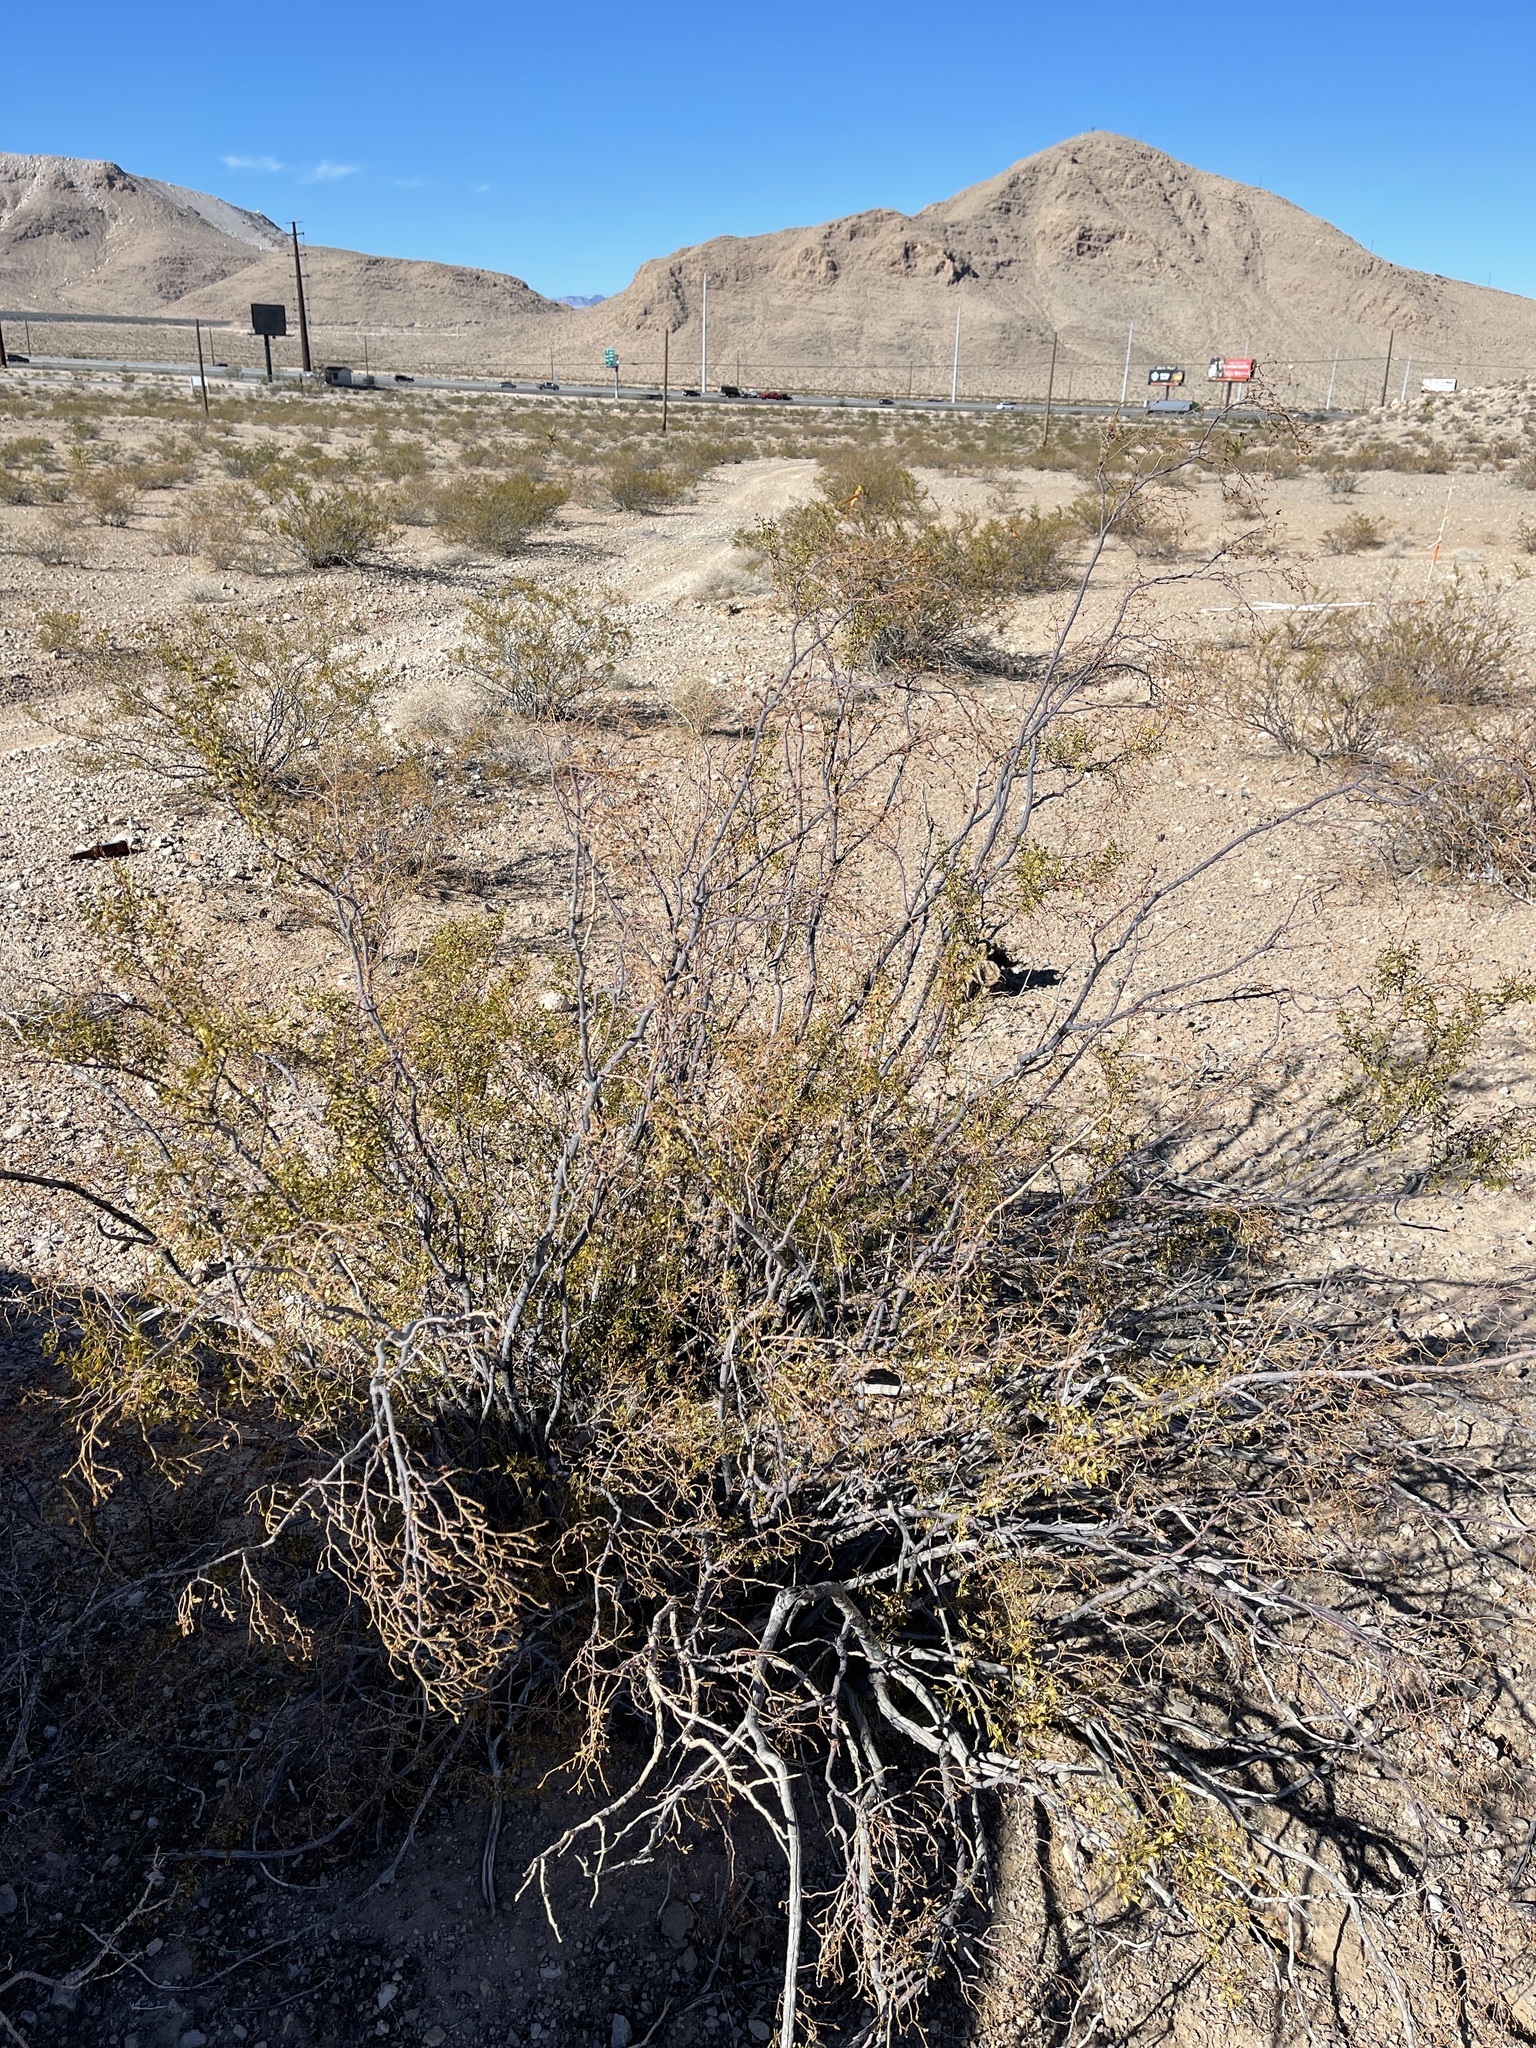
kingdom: Plantae
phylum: Tracheophyta
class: Magnoliopsida
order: Zygophyllales
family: Zygophyllaceae
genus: Larrea
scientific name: Larrea tridentata
